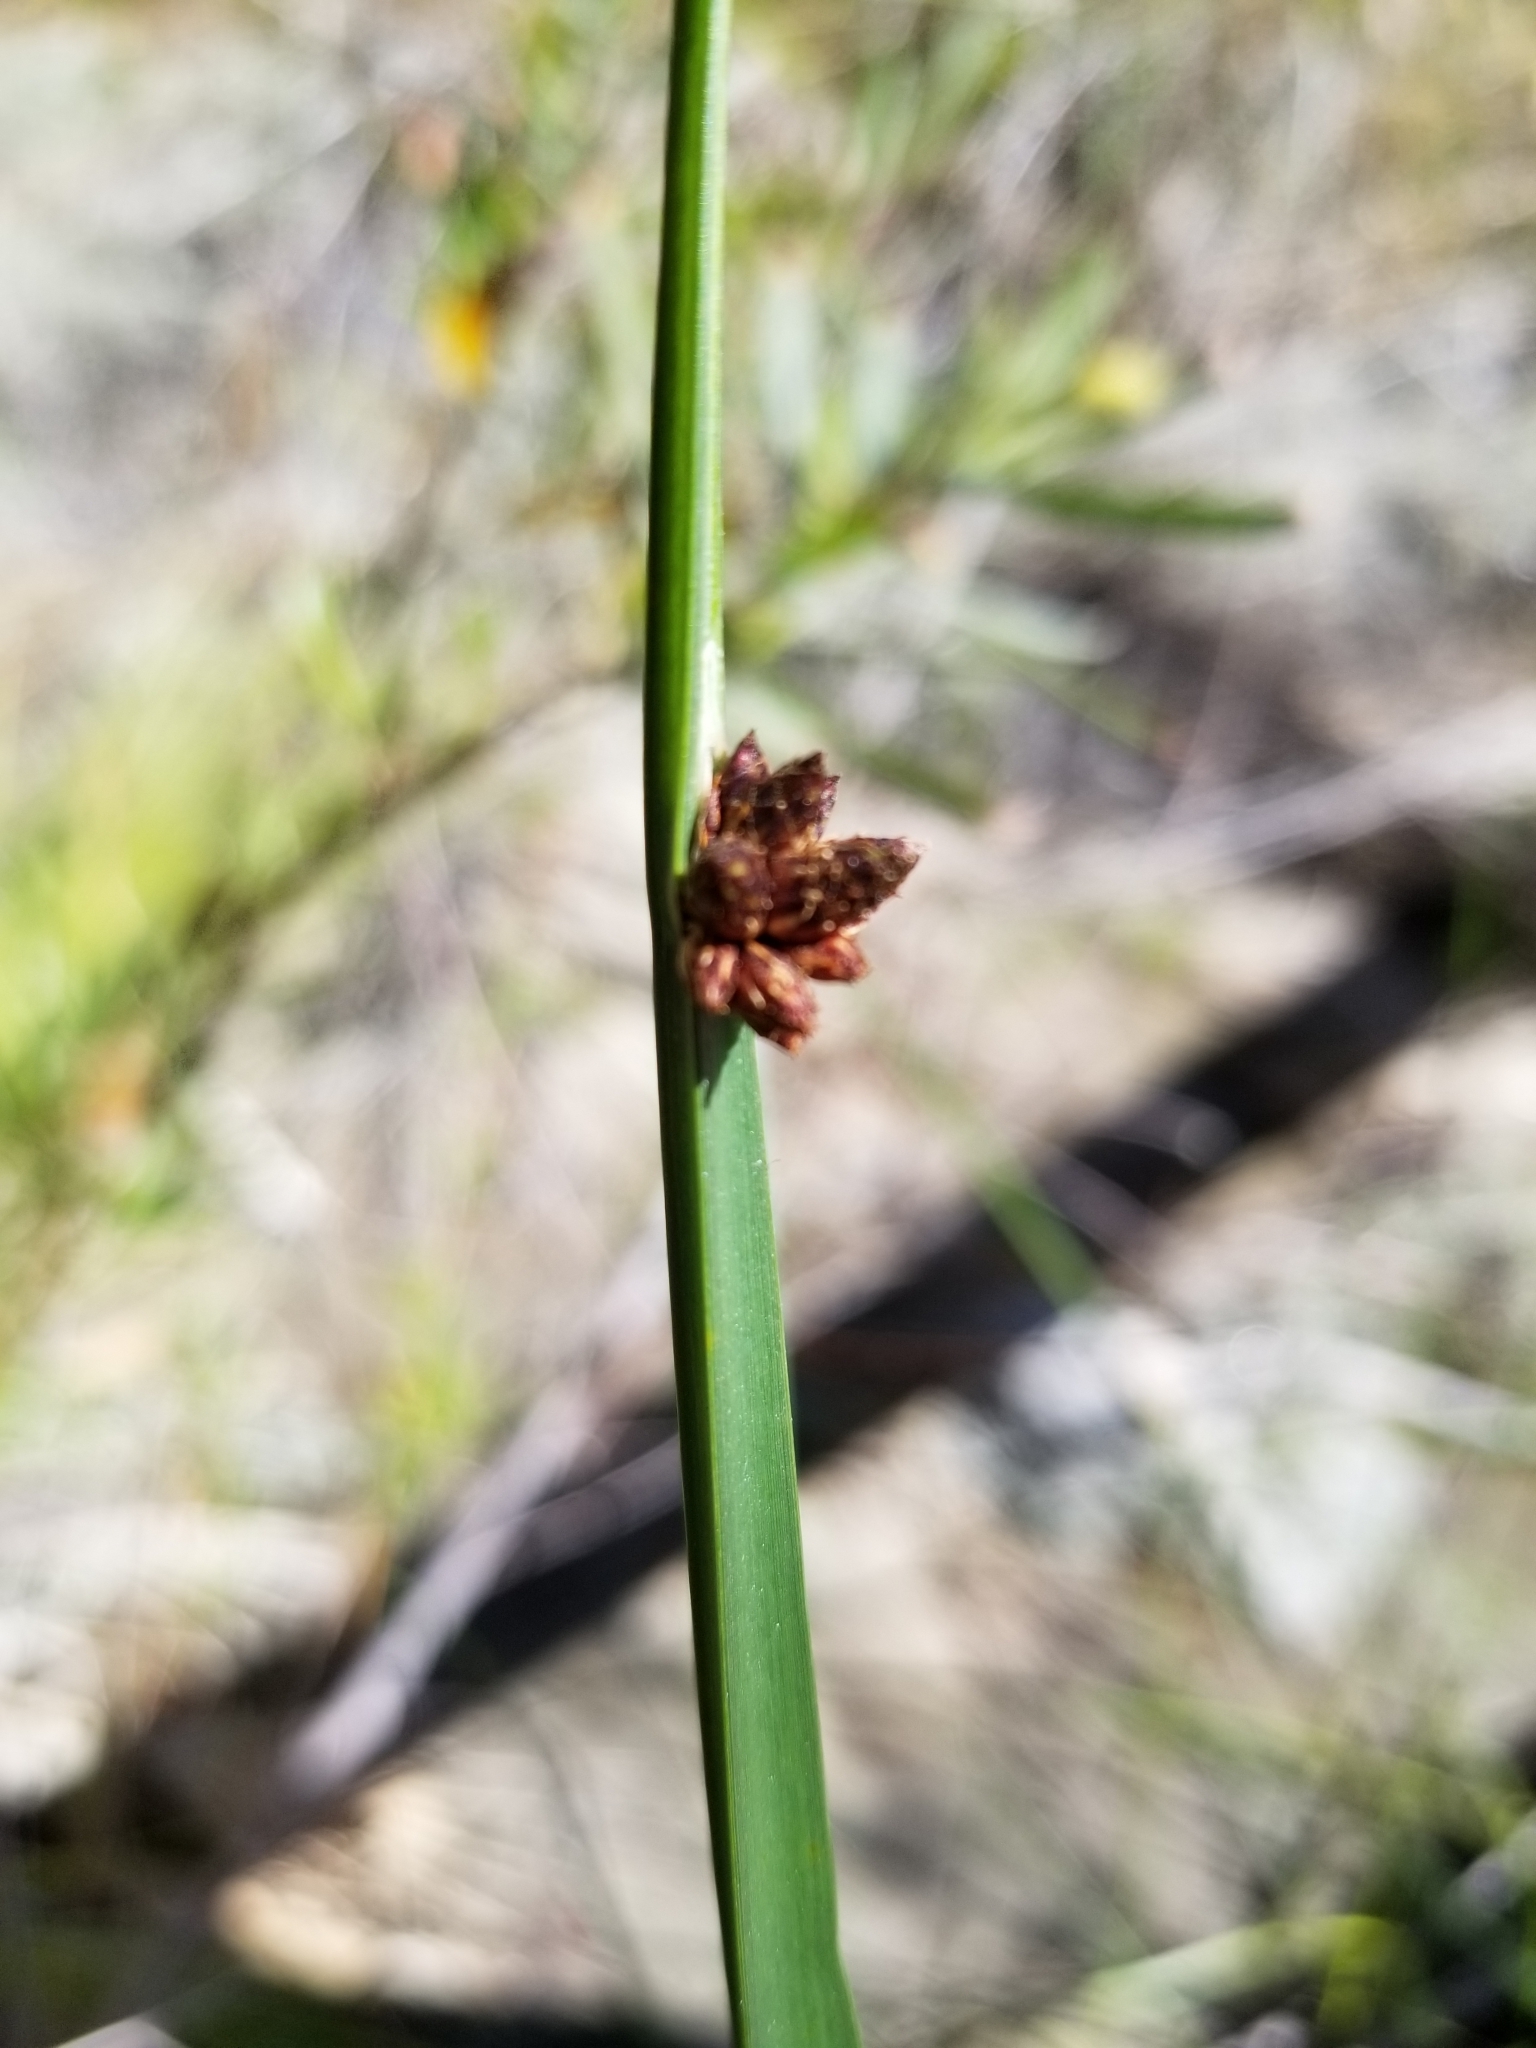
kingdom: Plantae
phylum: Tracheophyta
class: Liliopsida
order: Poales
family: Cyperaceae
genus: Schoenoplectus
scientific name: Schoenoplectus pungens
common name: Sharp club-rush
